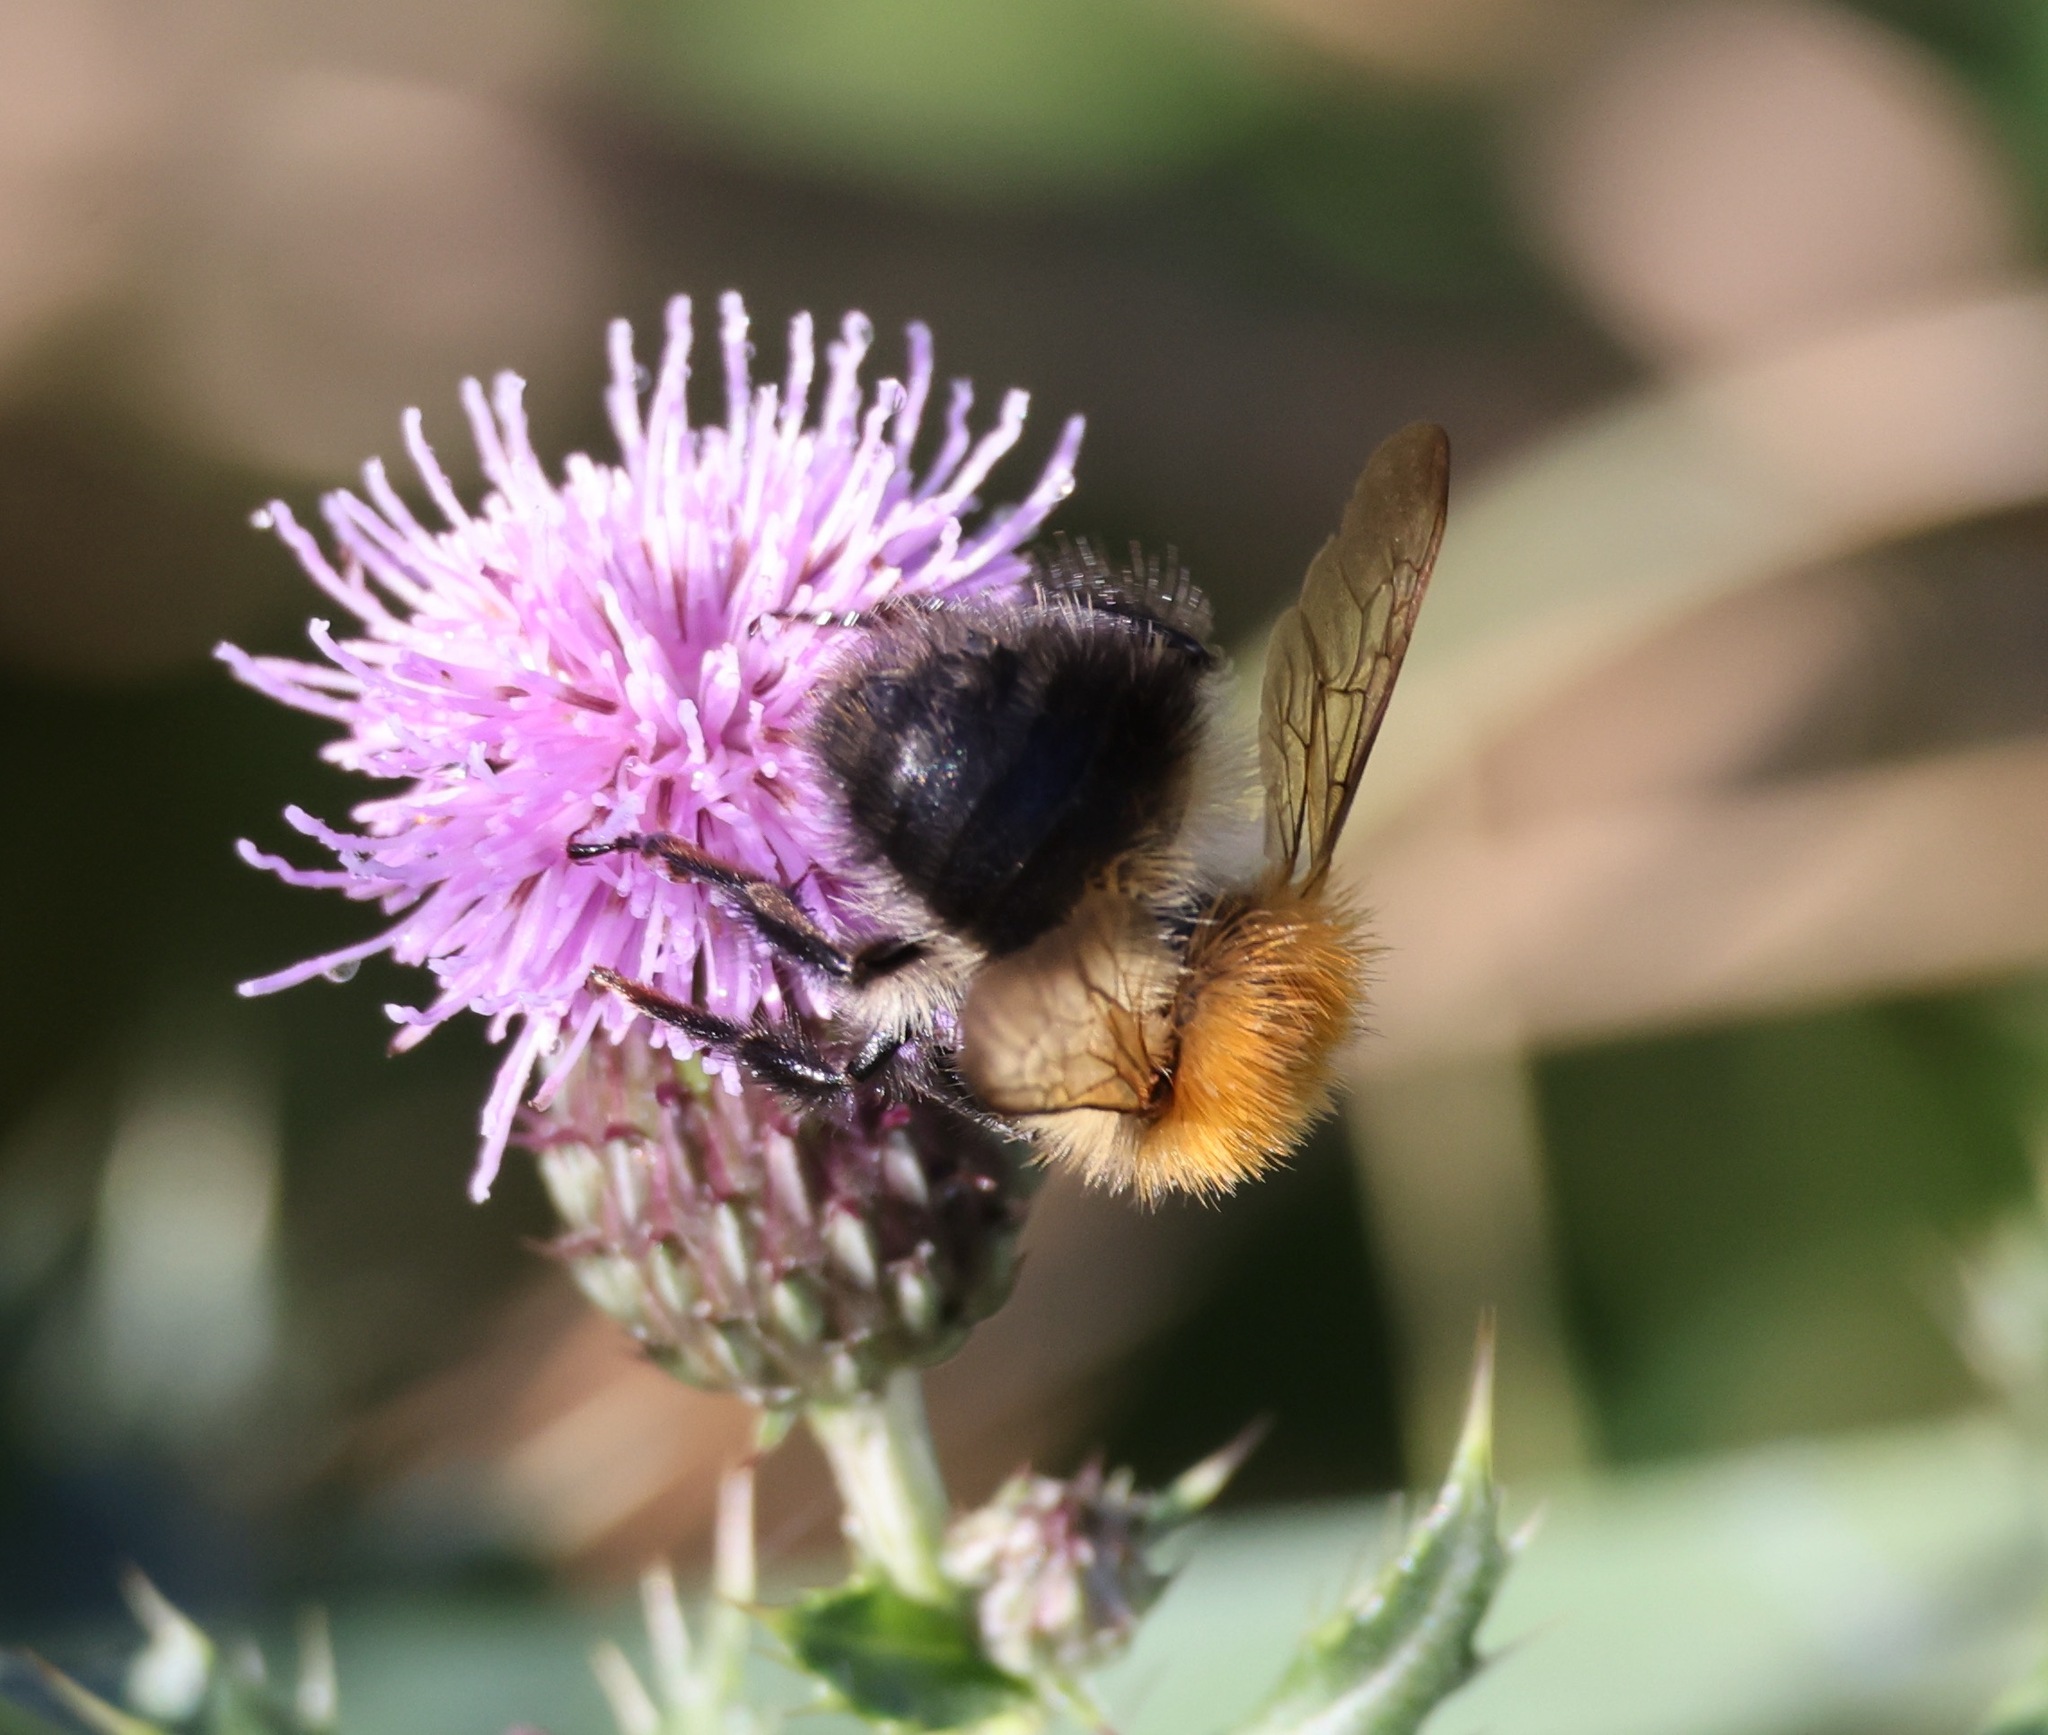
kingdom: Animalia
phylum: Arthropoda
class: Insecta
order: Hymenoptera
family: Apidae
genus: Bombus
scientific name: Bombus pascuorum
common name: Common carder bee
